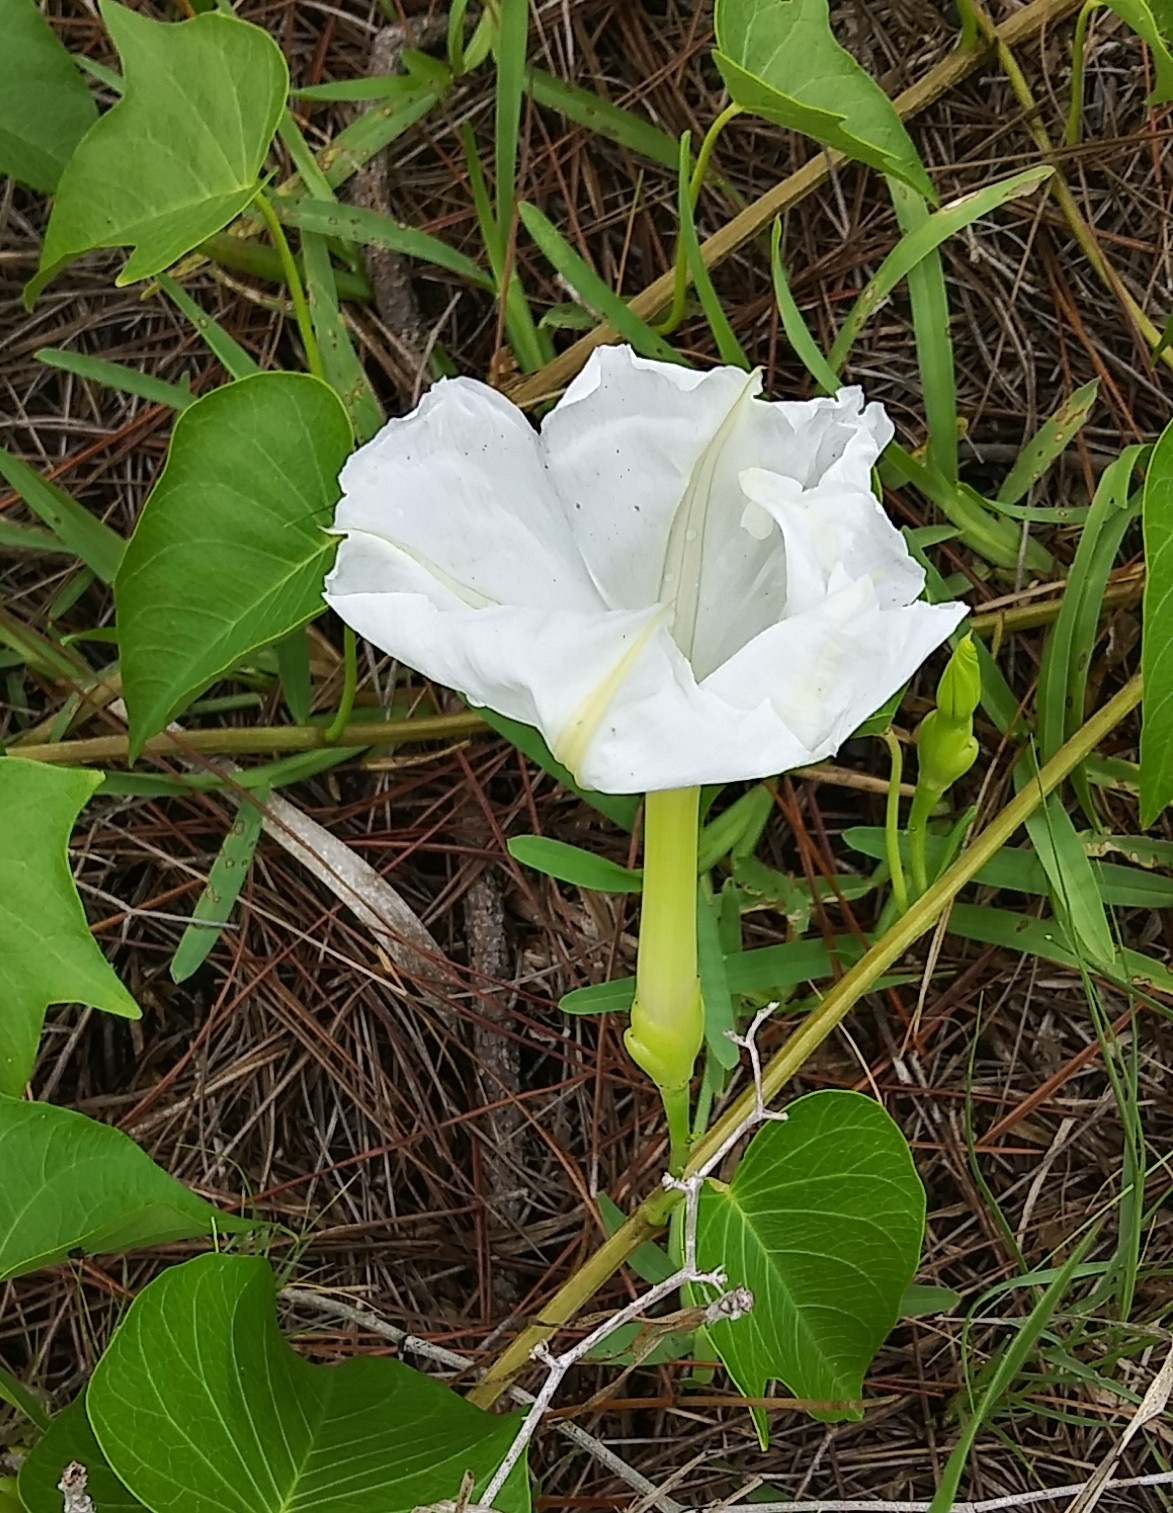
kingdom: Plantae
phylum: Tracheophyta
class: Magnoliopsida
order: Solanales
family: Convolvulaceae
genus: Ipomoea
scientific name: Ipomoea imperati
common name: Fiddle-leaf morning-glory
